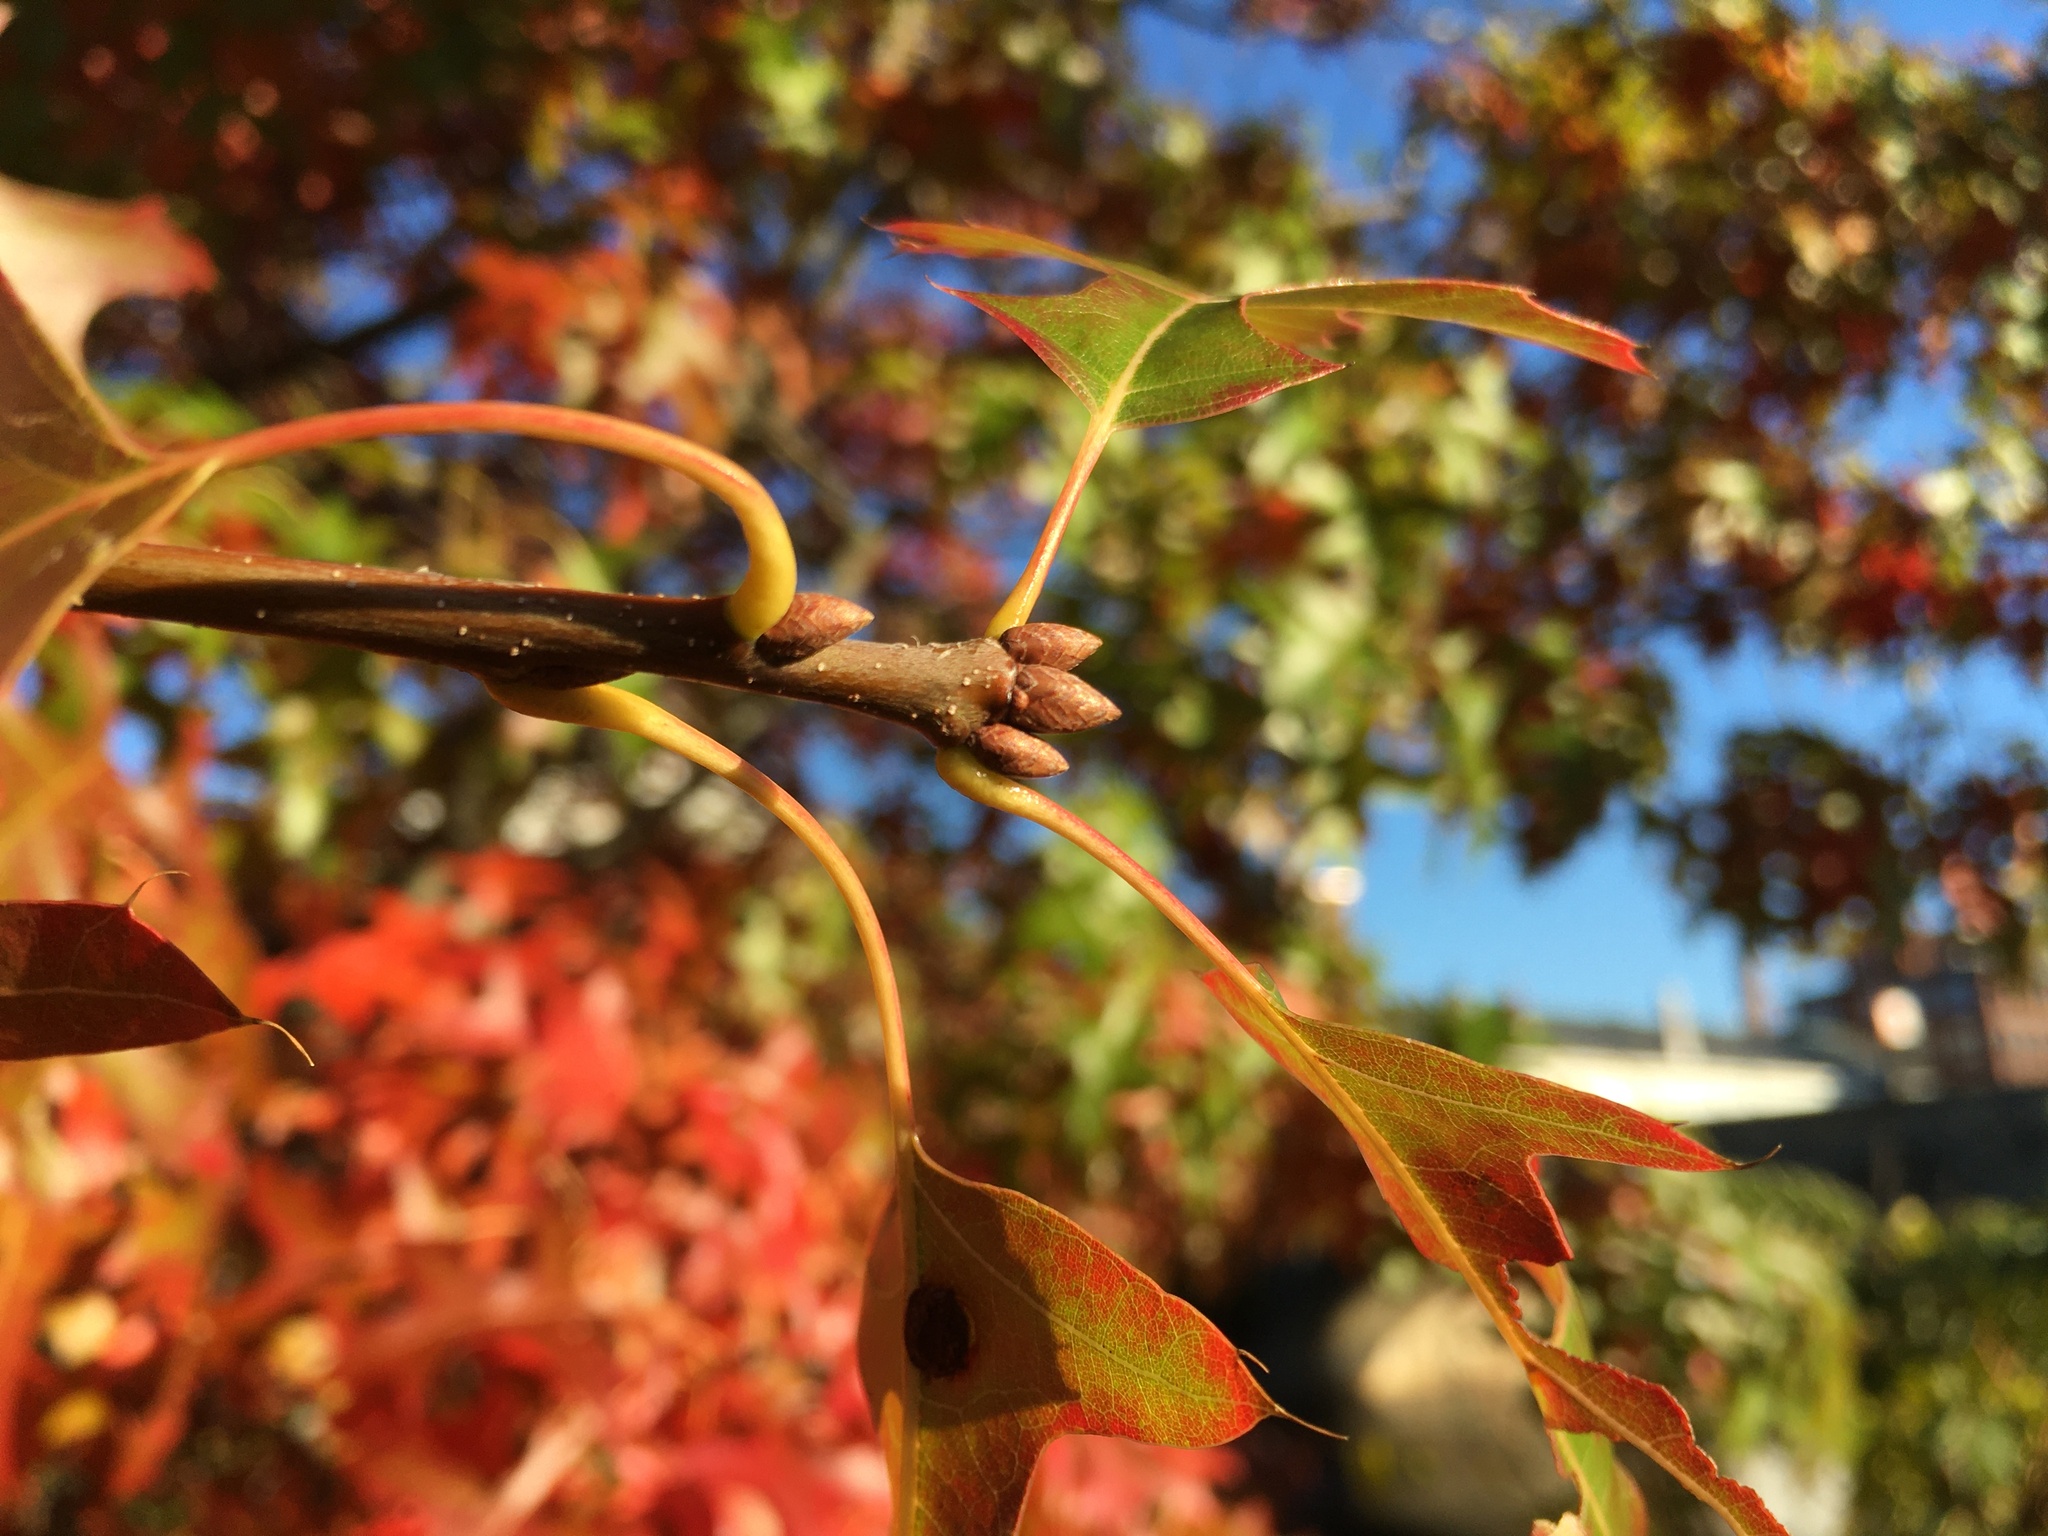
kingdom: Plantae
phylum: Tracheophyta
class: Magnoliopsida
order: Fagales
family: Fagaceae
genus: Quercus
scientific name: Quercus palustris
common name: Pin oak
